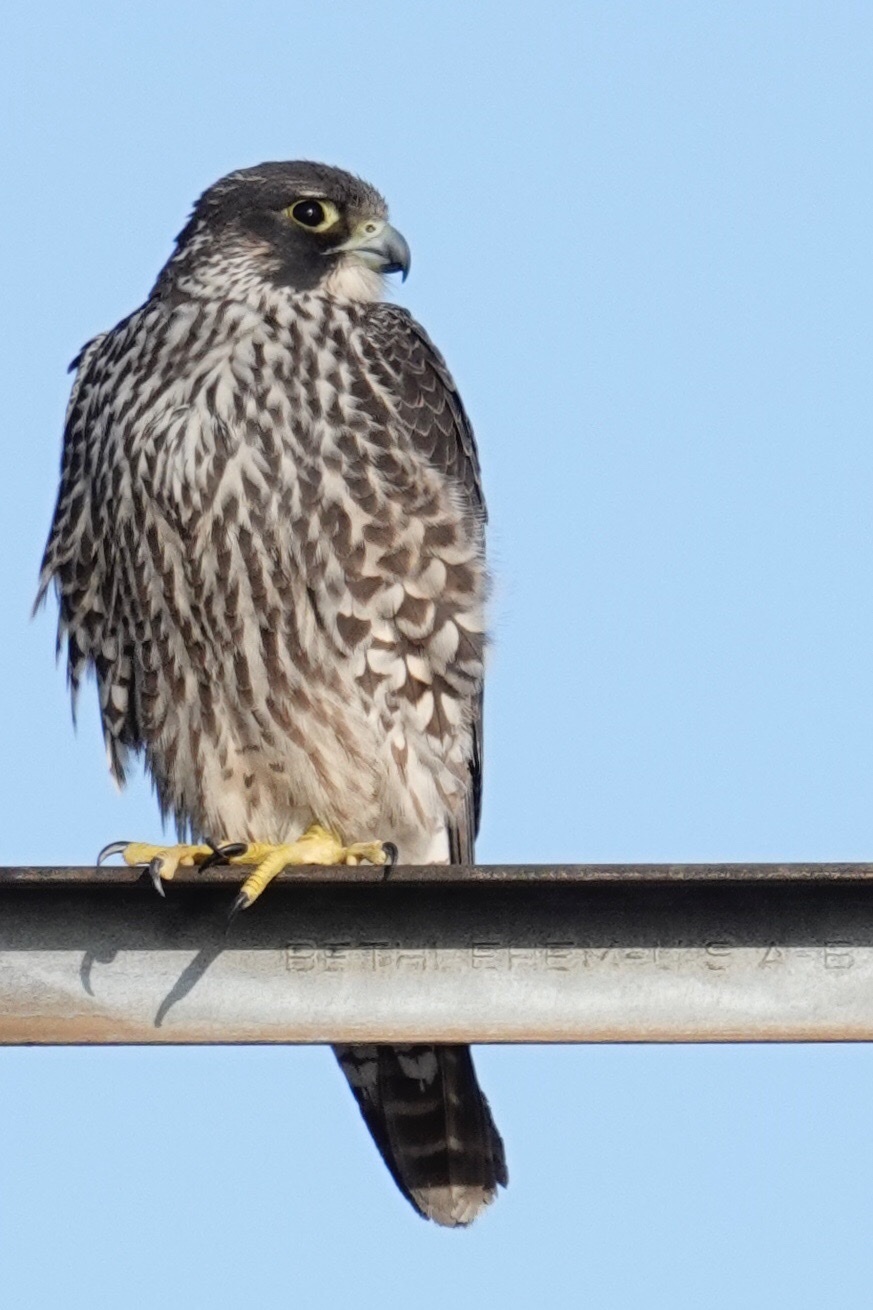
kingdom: Animalia
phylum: Chordata
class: Aves
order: Falconiformes
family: Falconidae
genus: Falco
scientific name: Falco peregrinus
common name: Peregrine falcon
